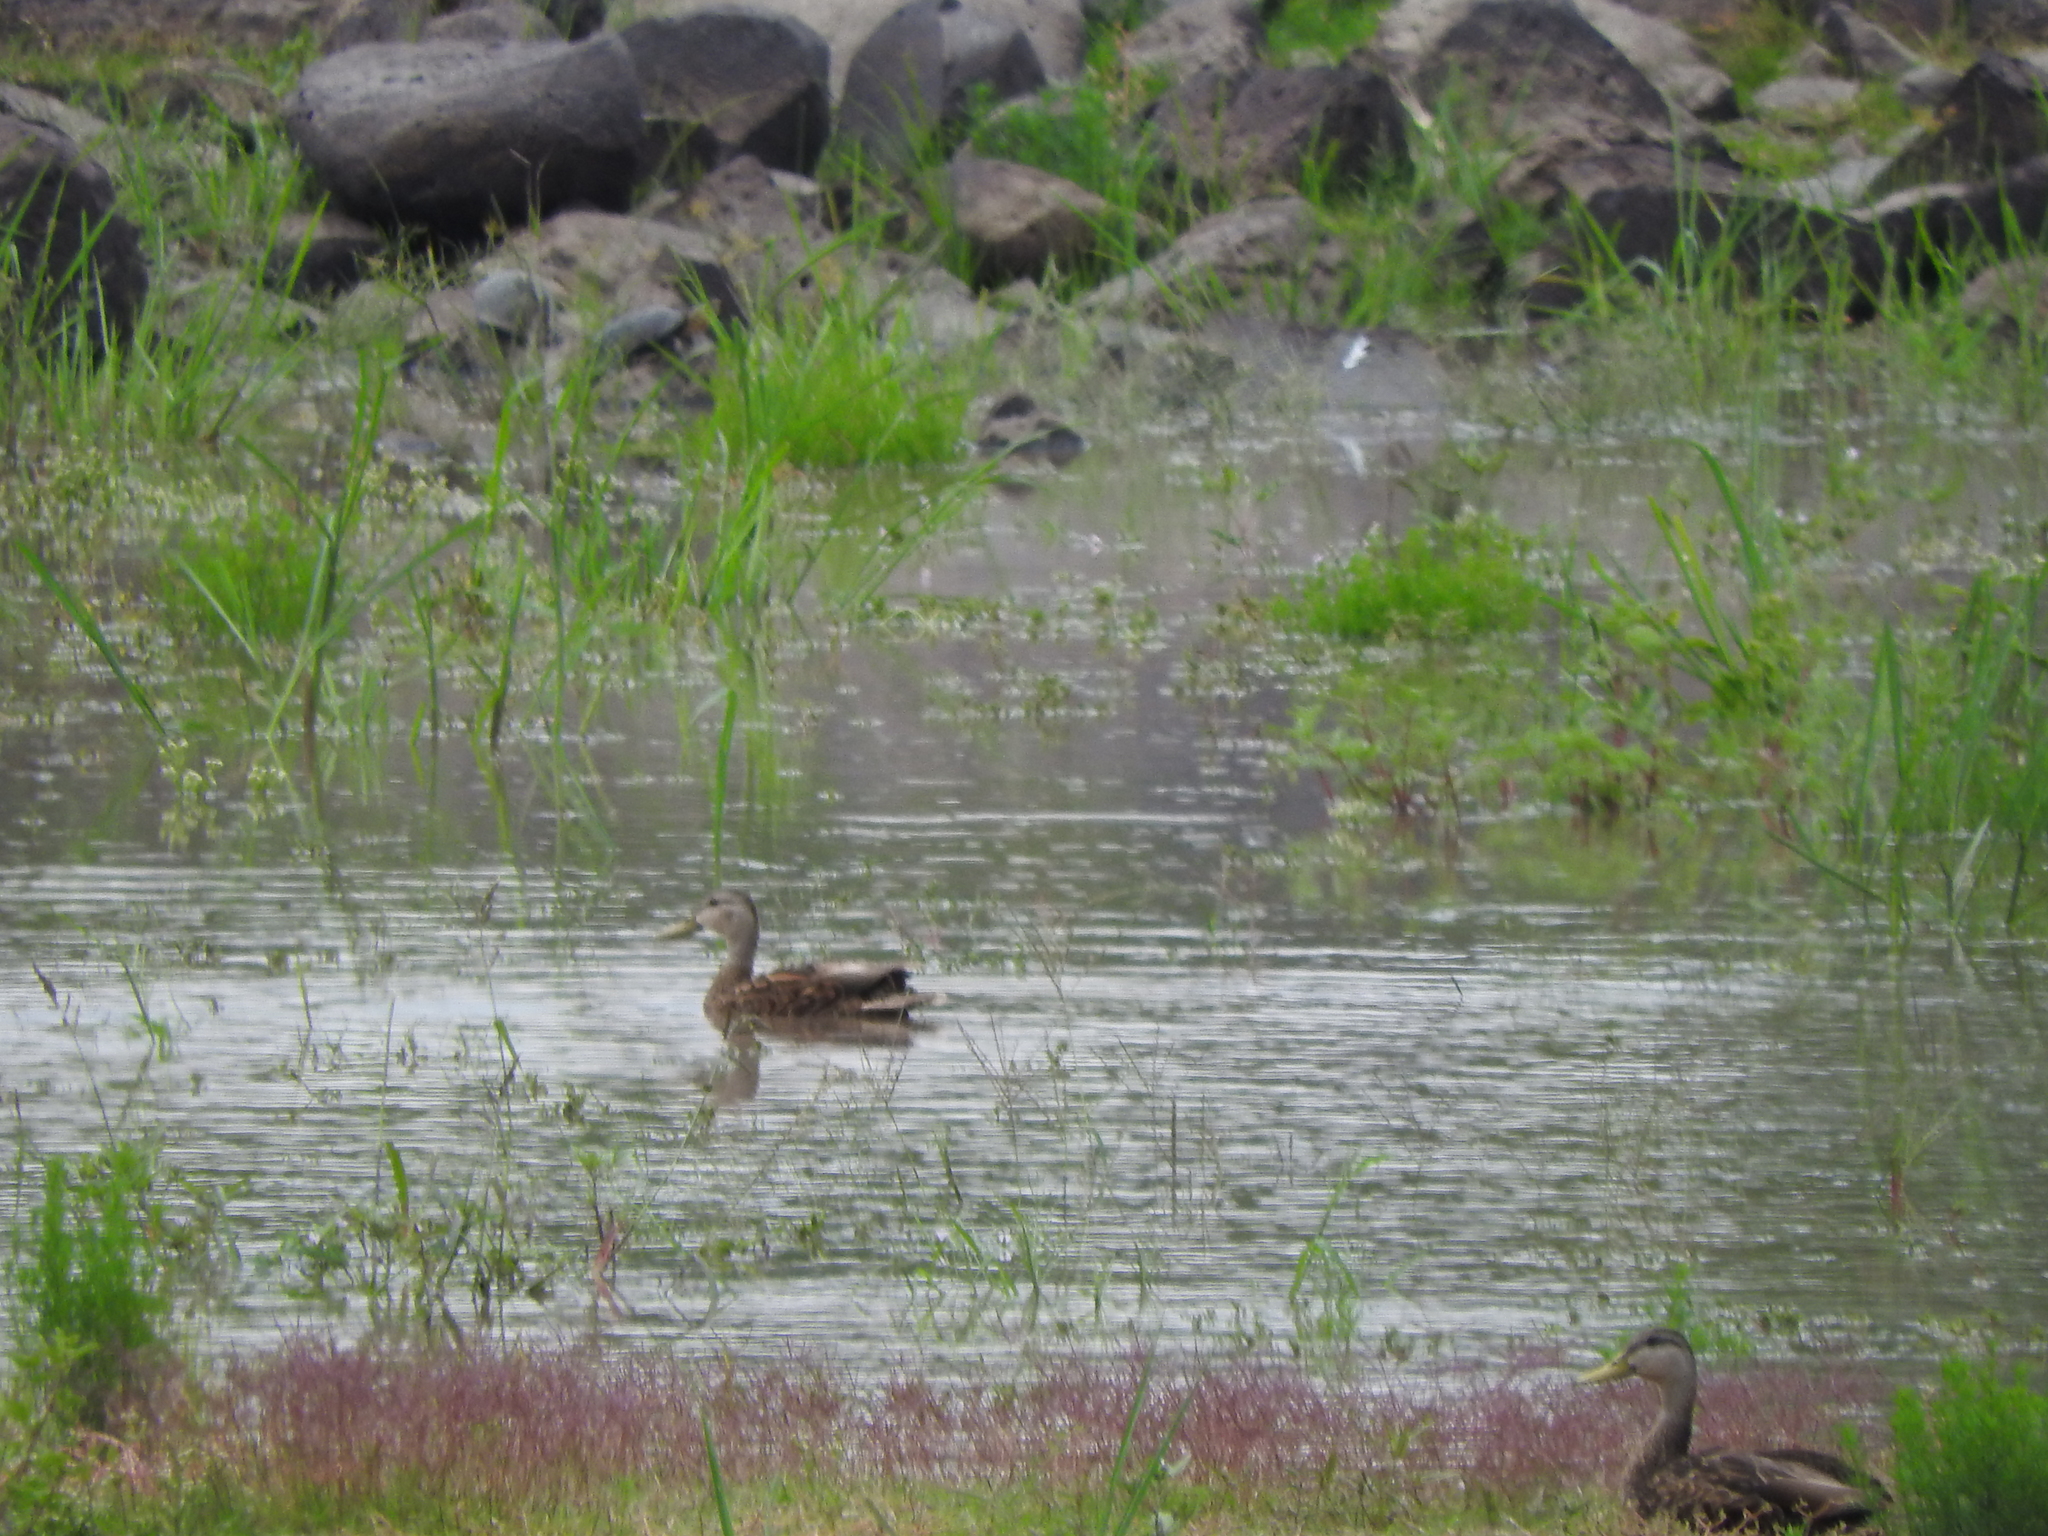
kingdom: Animalia
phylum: Chordata
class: Aves
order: Anseriformes
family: Anatidae
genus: Anas
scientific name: Anas diazi
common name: Mexican duck
